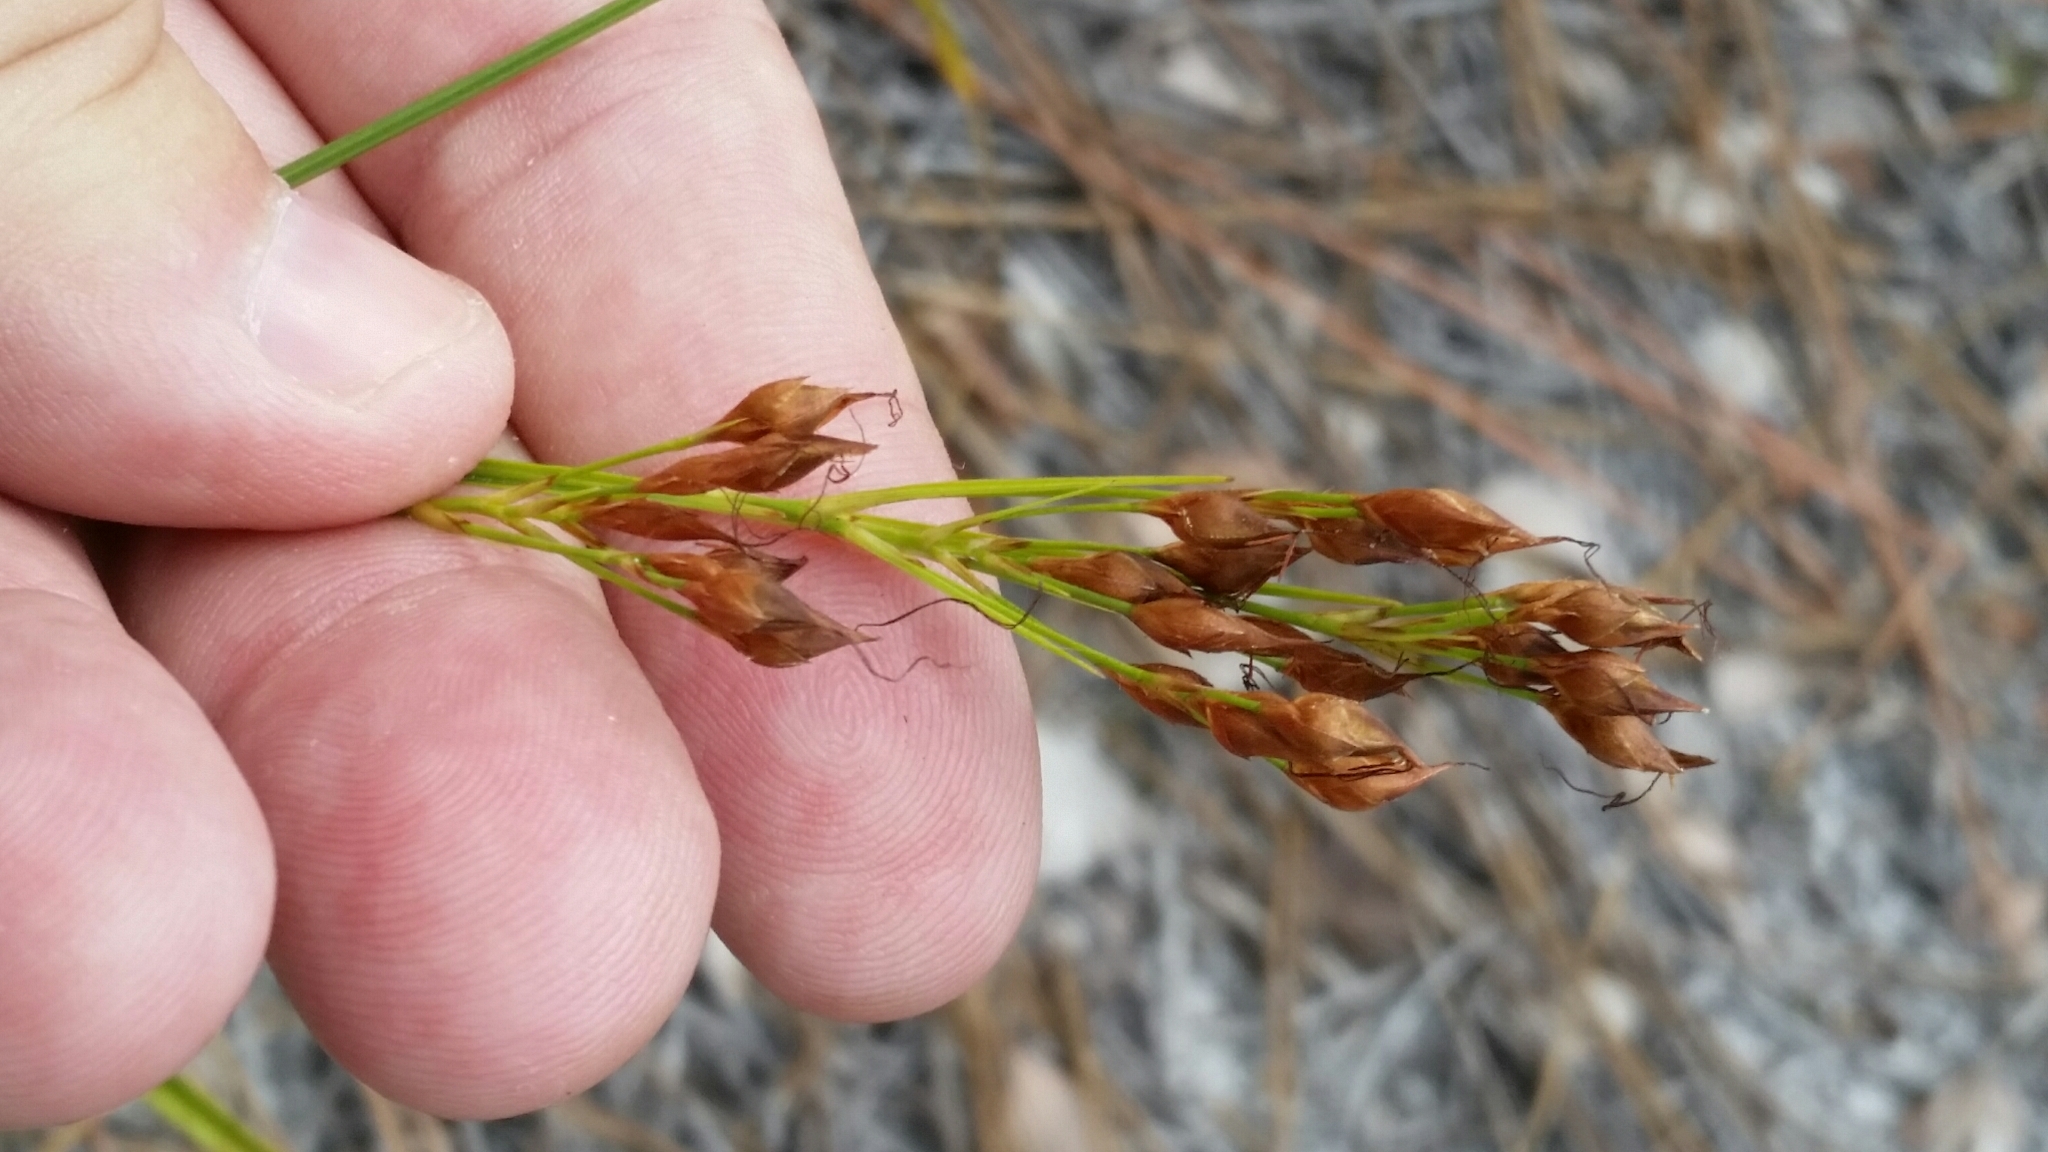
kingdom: Plantae
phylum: Tracheophyta
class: Liliopsida
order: Poales
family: Cyperaceae
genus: Rhynchospora
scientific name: Rhynchospora megalocarpa
